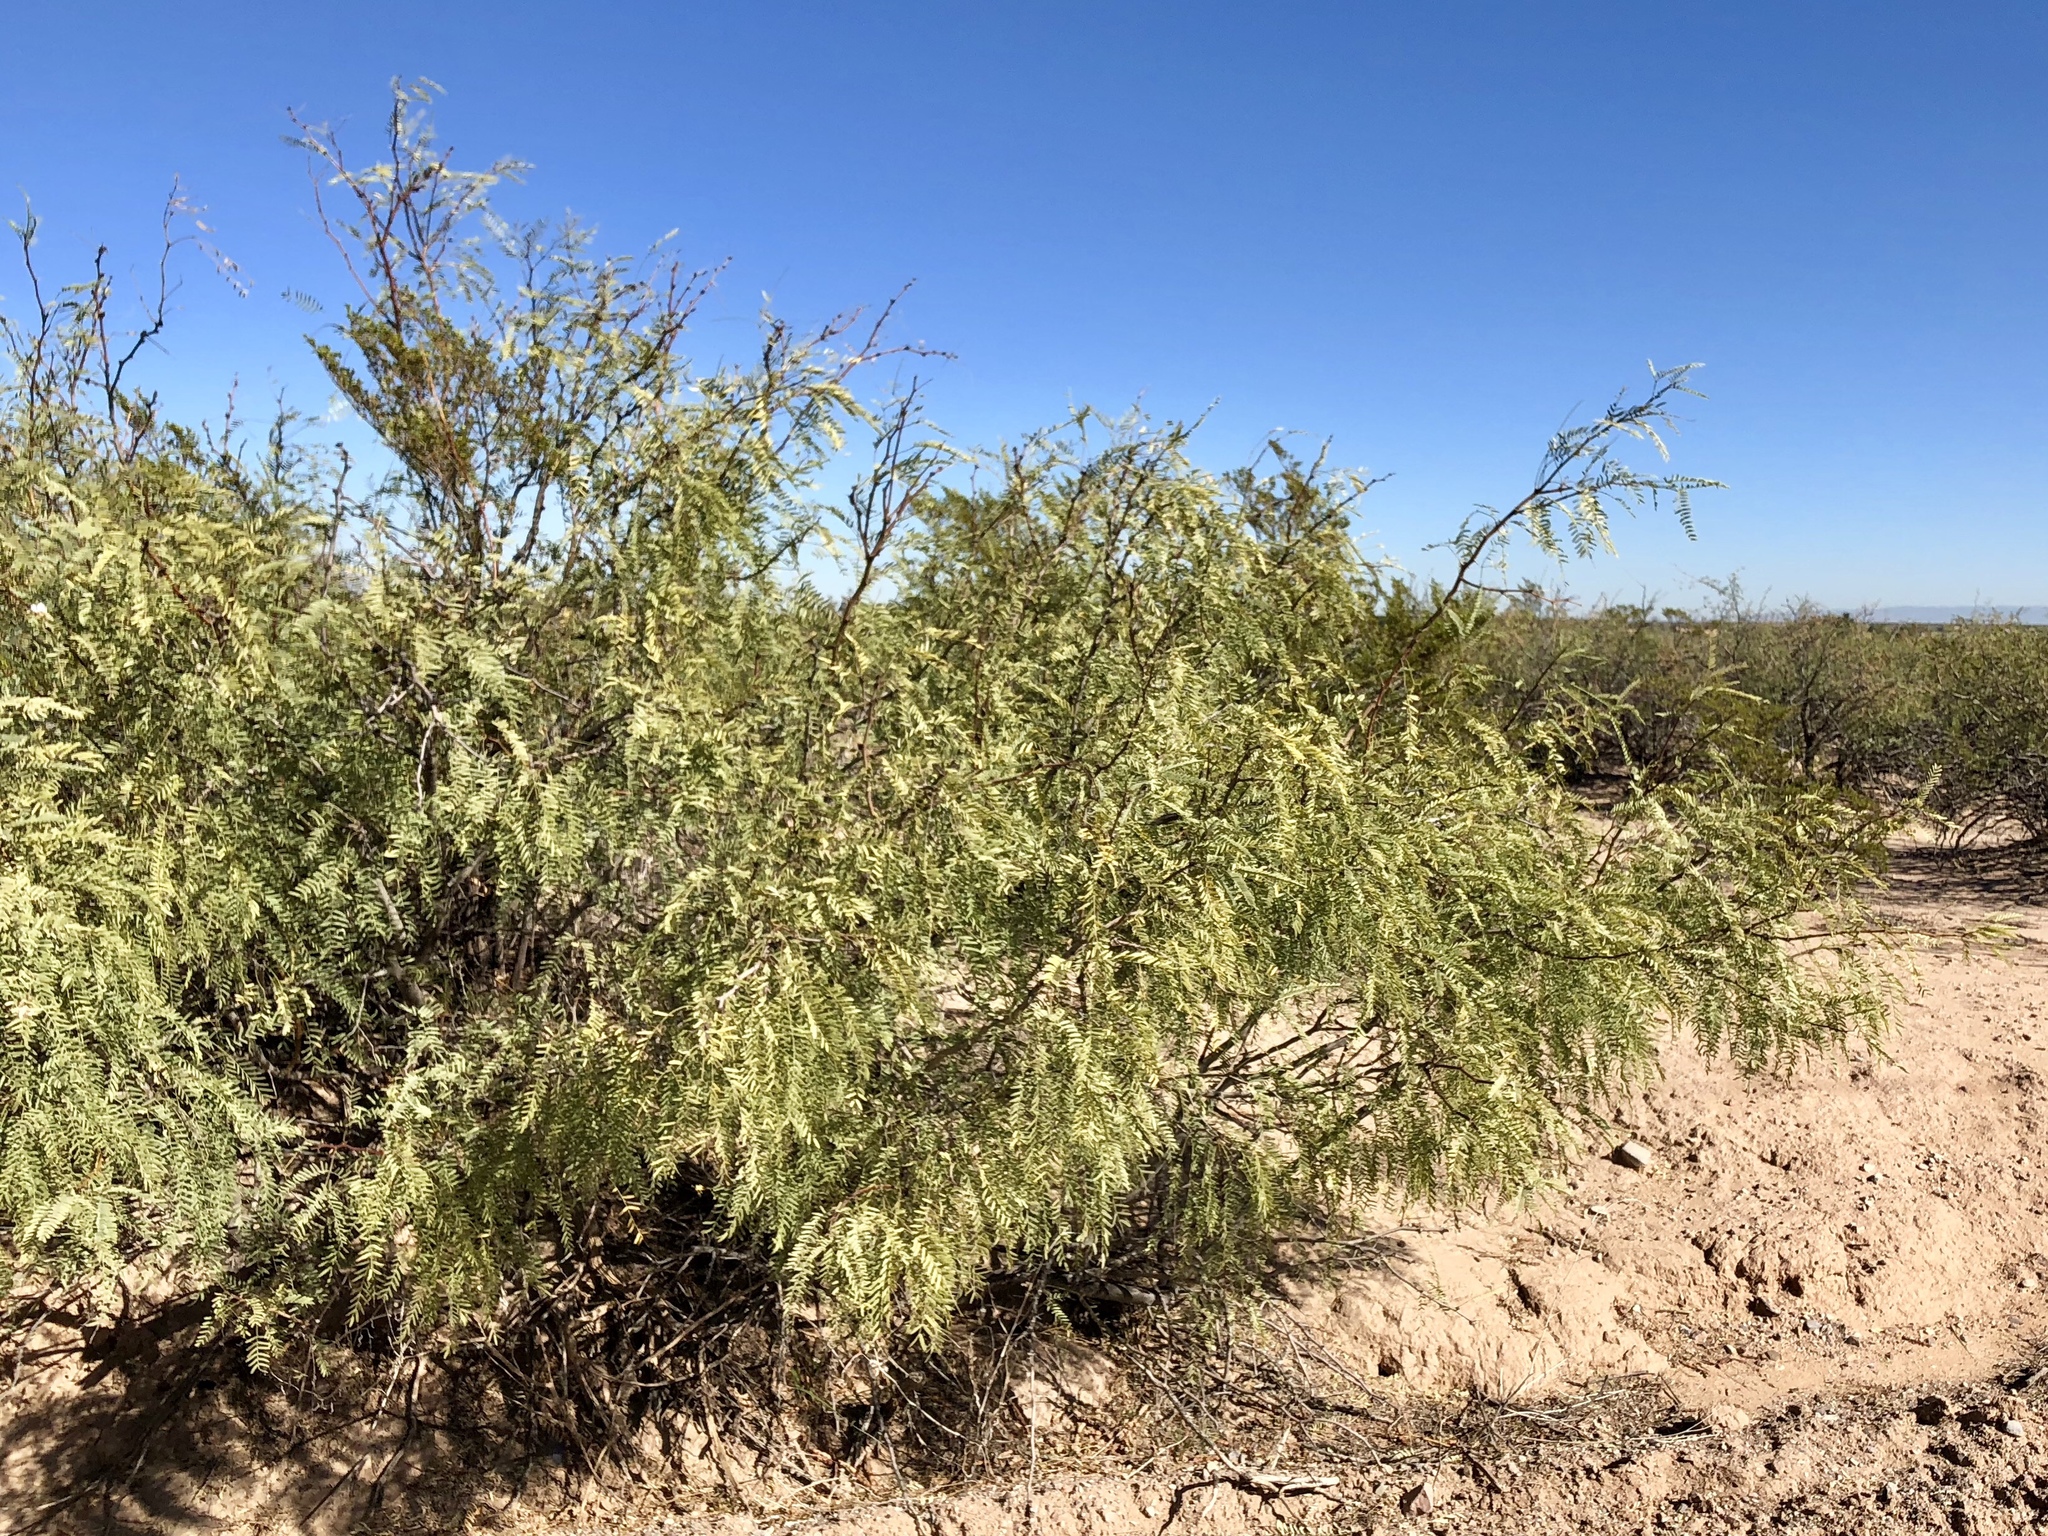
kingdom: Plantae
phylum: Tracheophyta
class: Magnoliopsida
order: Fabales
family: Fabaceae
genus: Prosopis
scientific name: Prosopis glandulosa
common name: Honey mesquite
